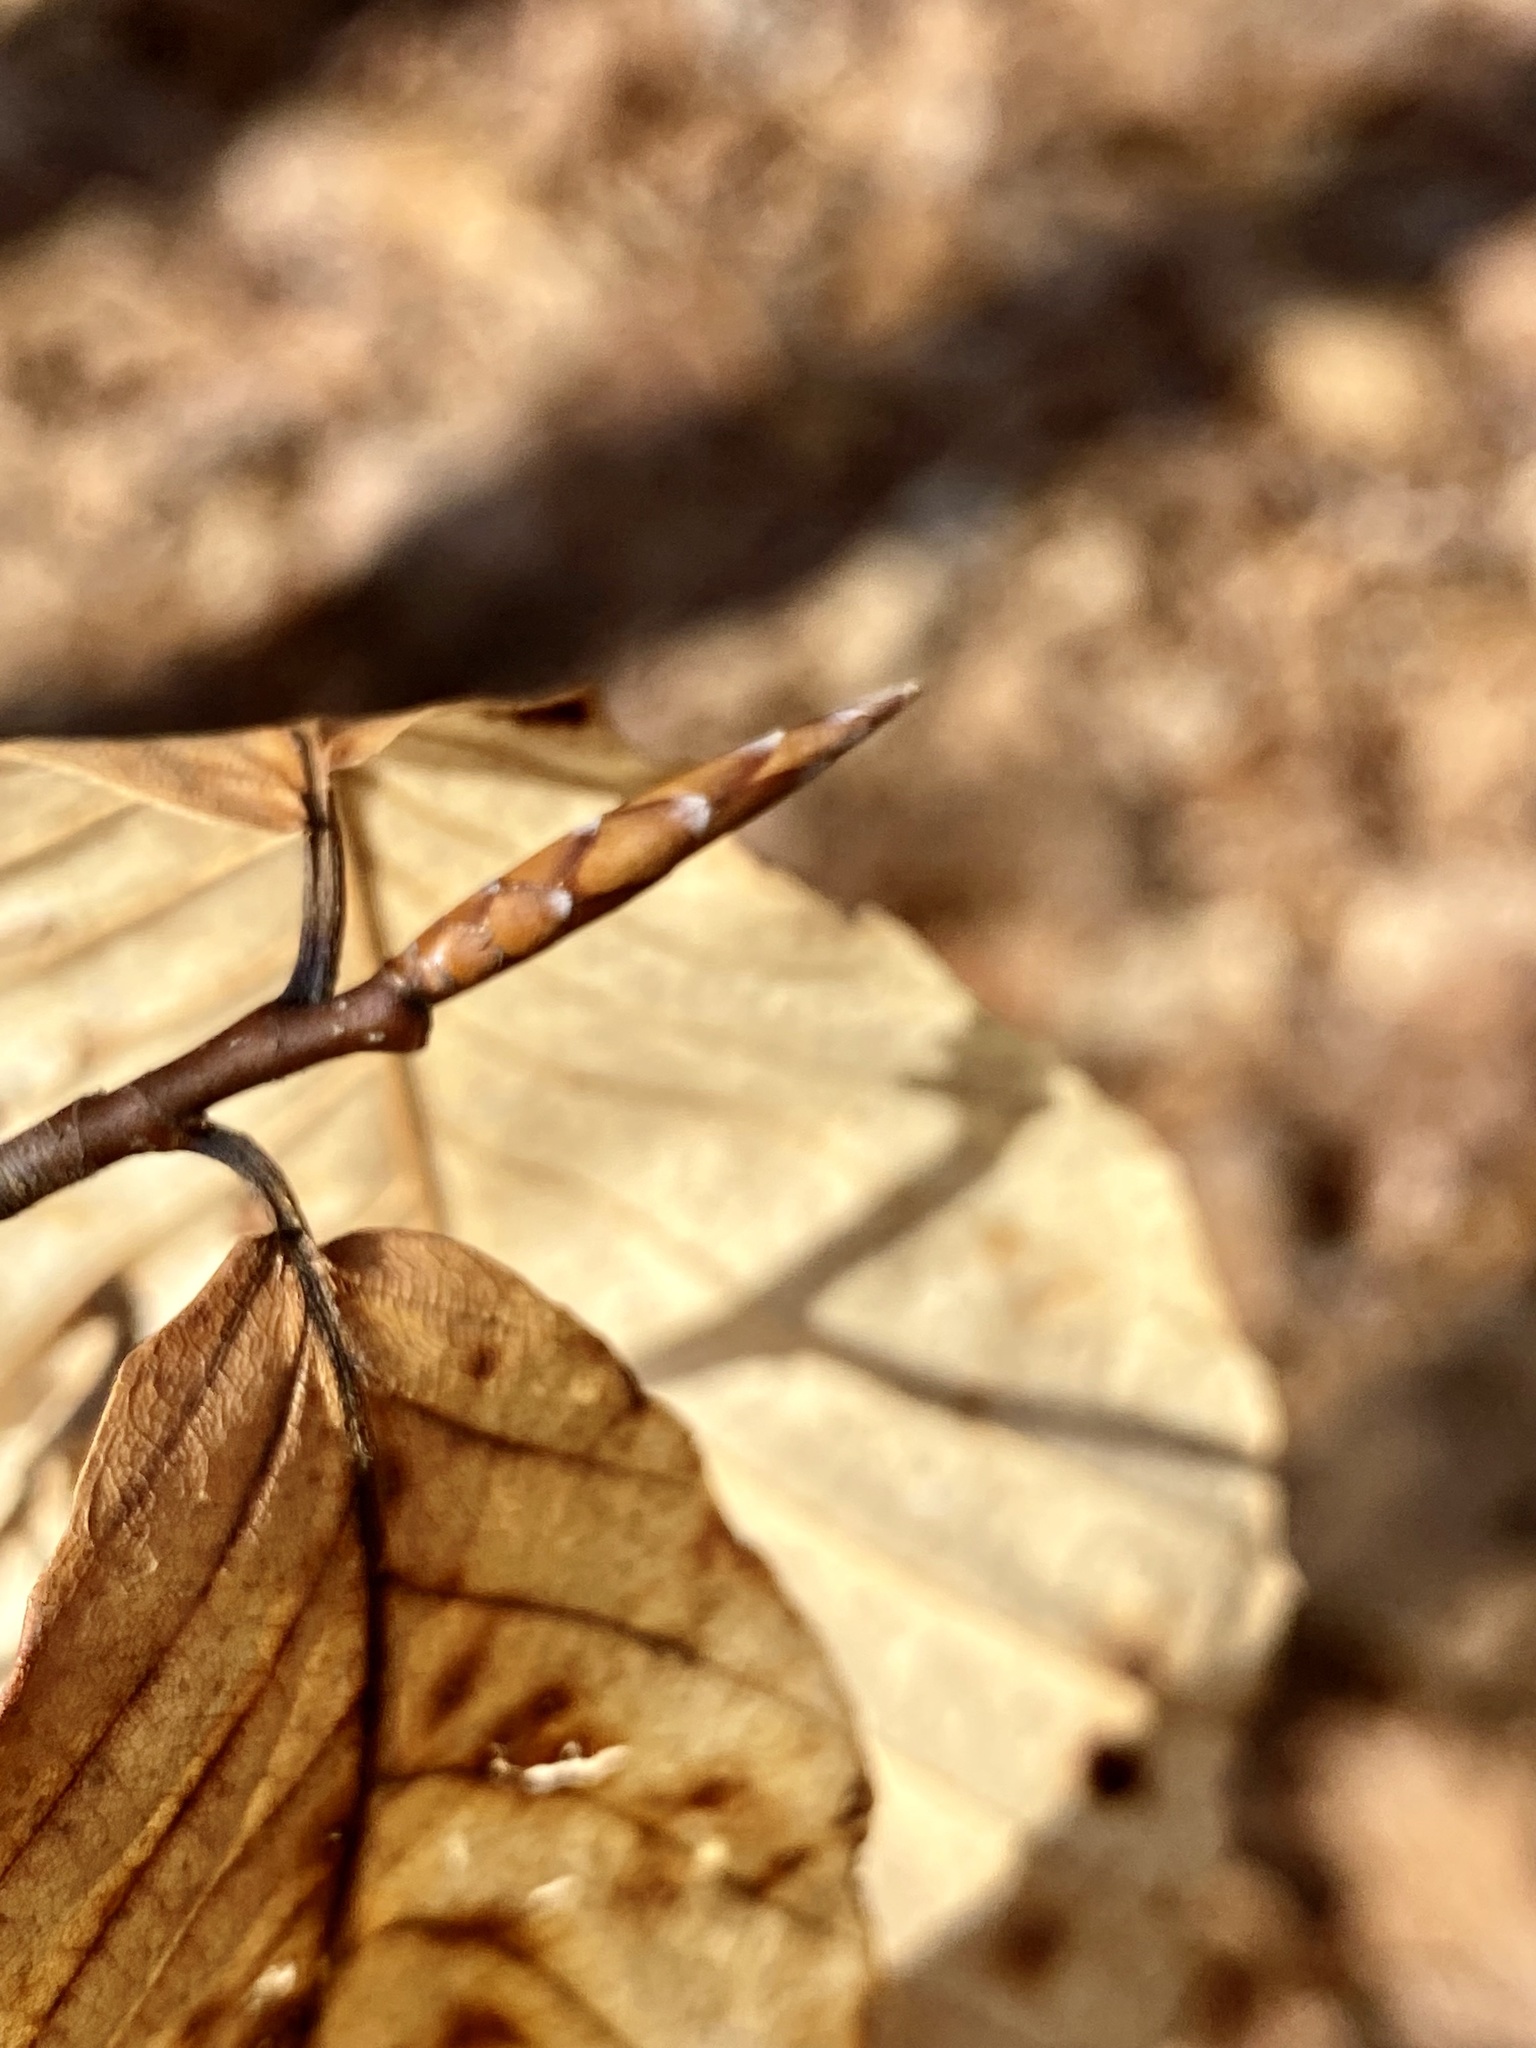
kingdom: Plantae
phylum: Tracheophyta
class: Magnoliopsida
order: Fagales
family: Fagaceae
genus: Fagus
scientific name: Fagus grandifolia
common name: American beech
